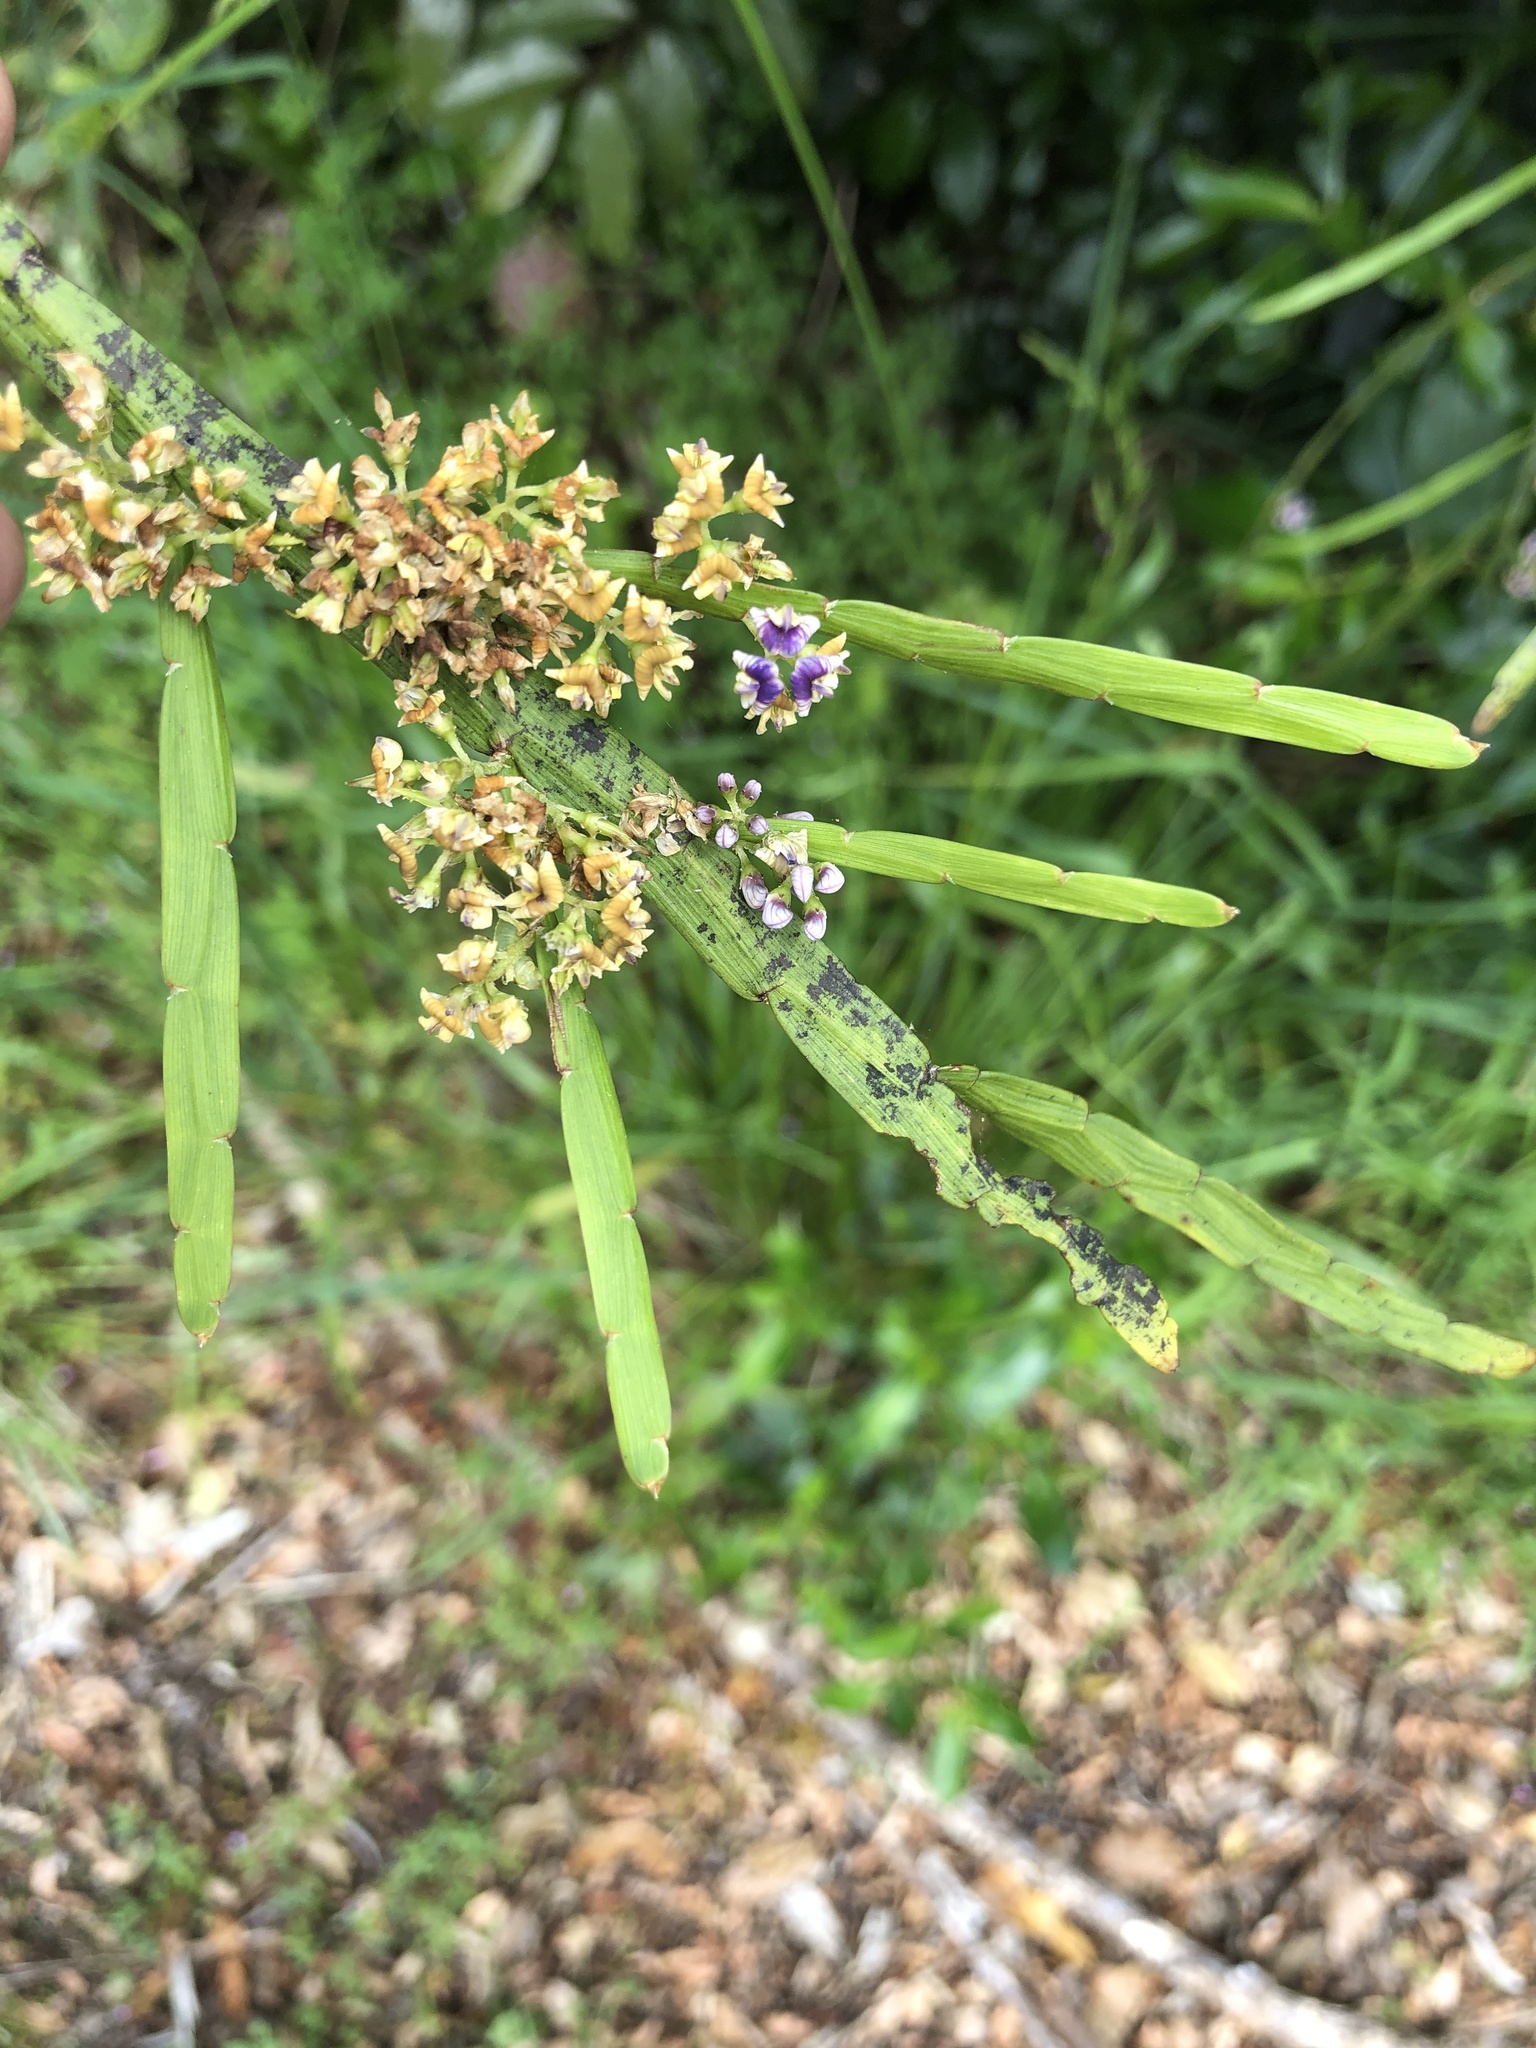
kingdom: Plantae
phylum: Tracheophyta
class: Magnoliopsida
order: Fabales
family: Fabaceae
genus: Carmichaelia
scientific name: Carmichaelia australis
